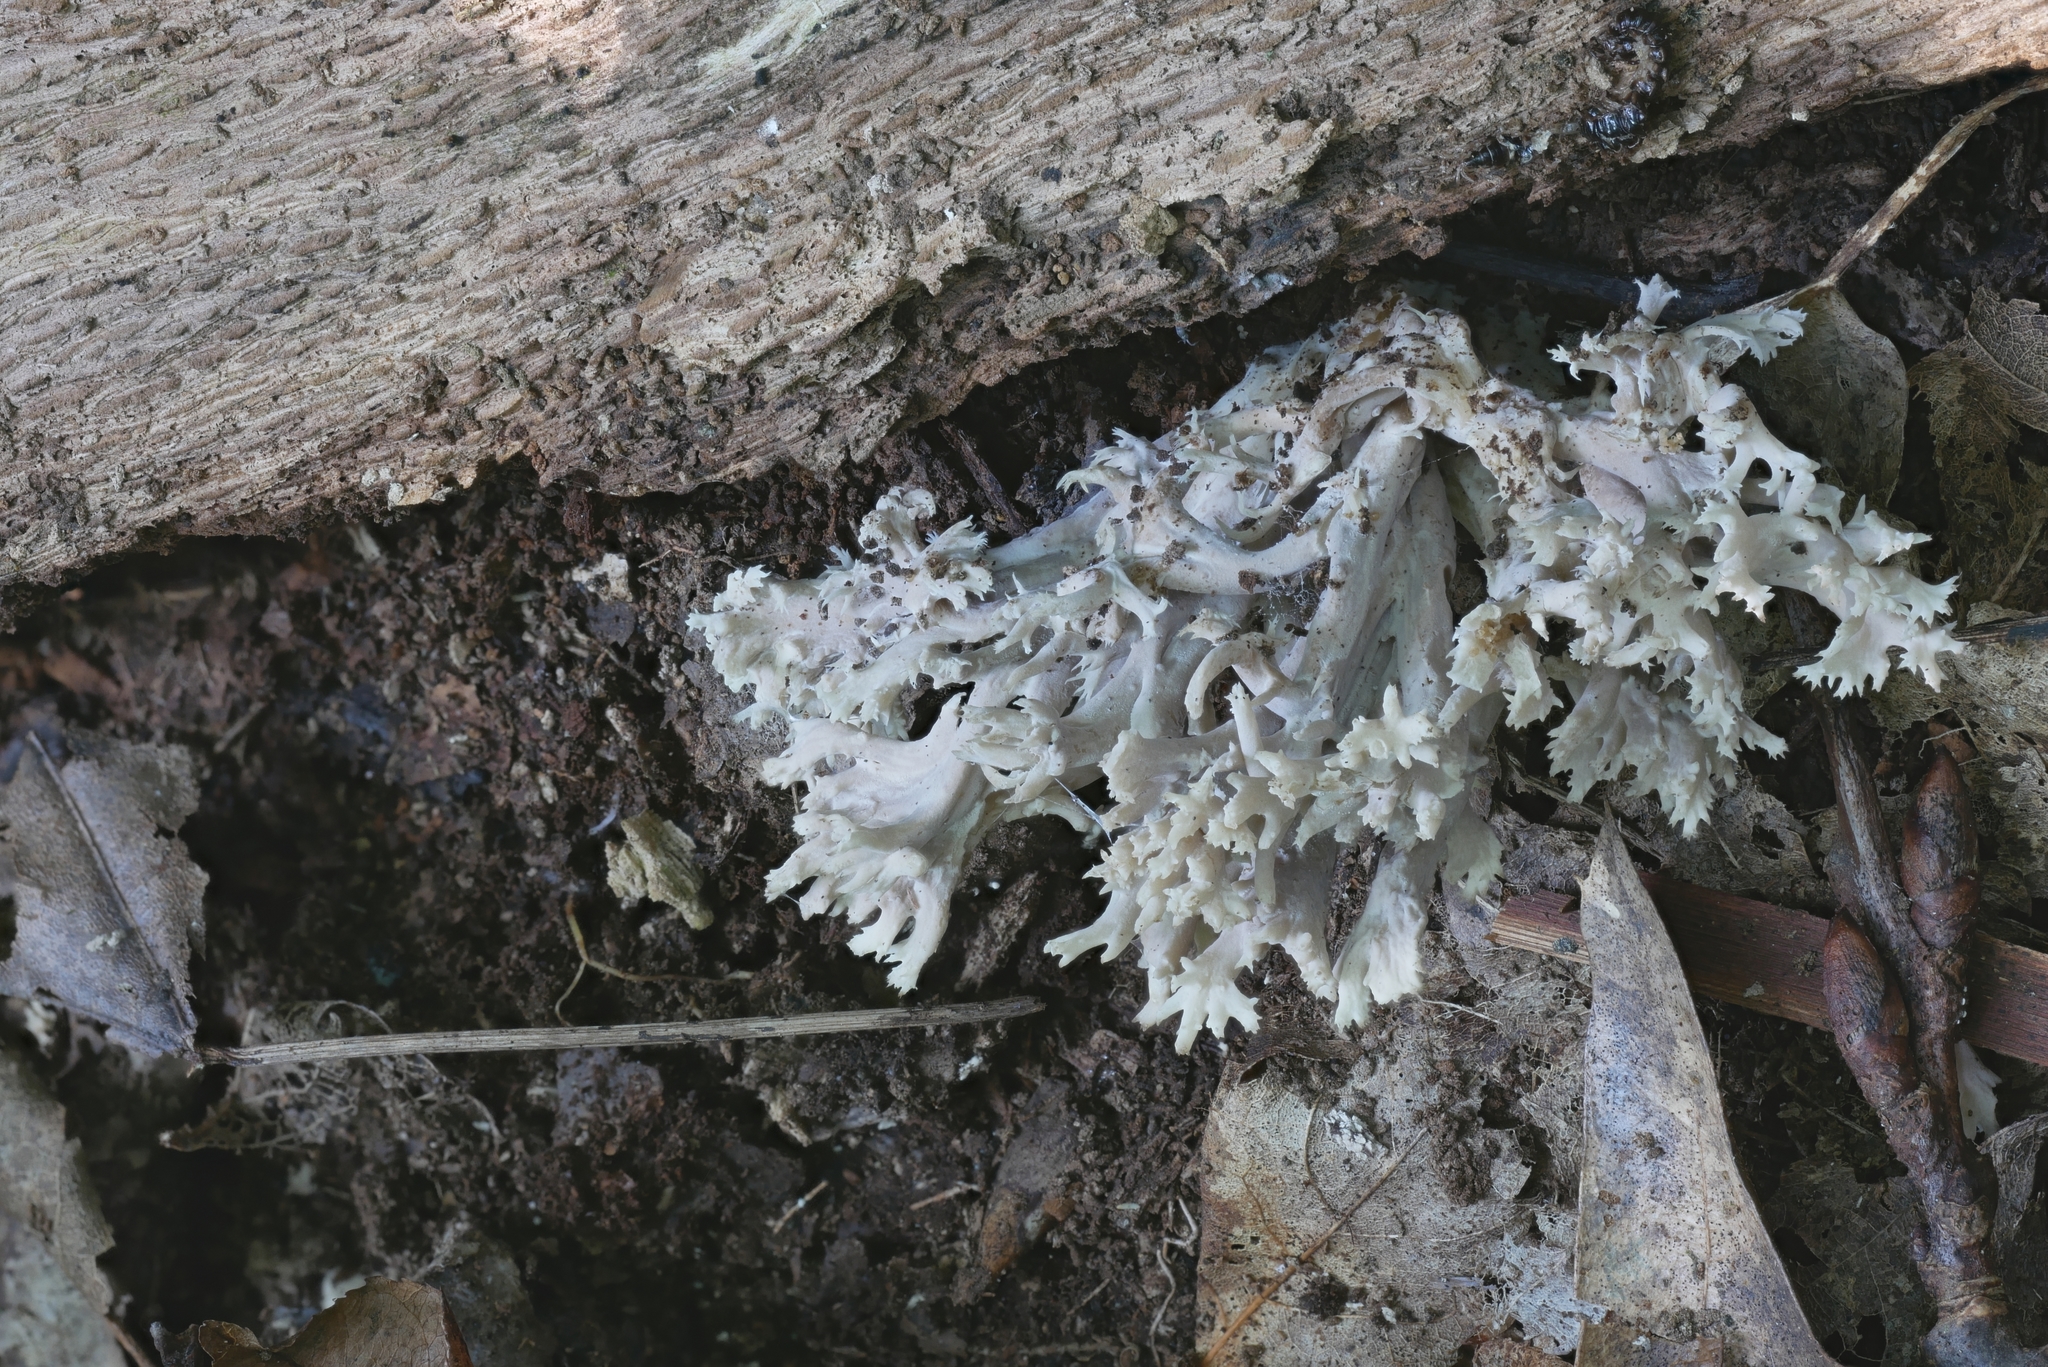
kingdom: Fungi
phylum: Ascomycota
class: Sordariomycetes
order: Sordariales
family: Helminthosphaeriaceae
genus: Helminthosphaeria
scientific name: Helminthosphaeria clavariarum
